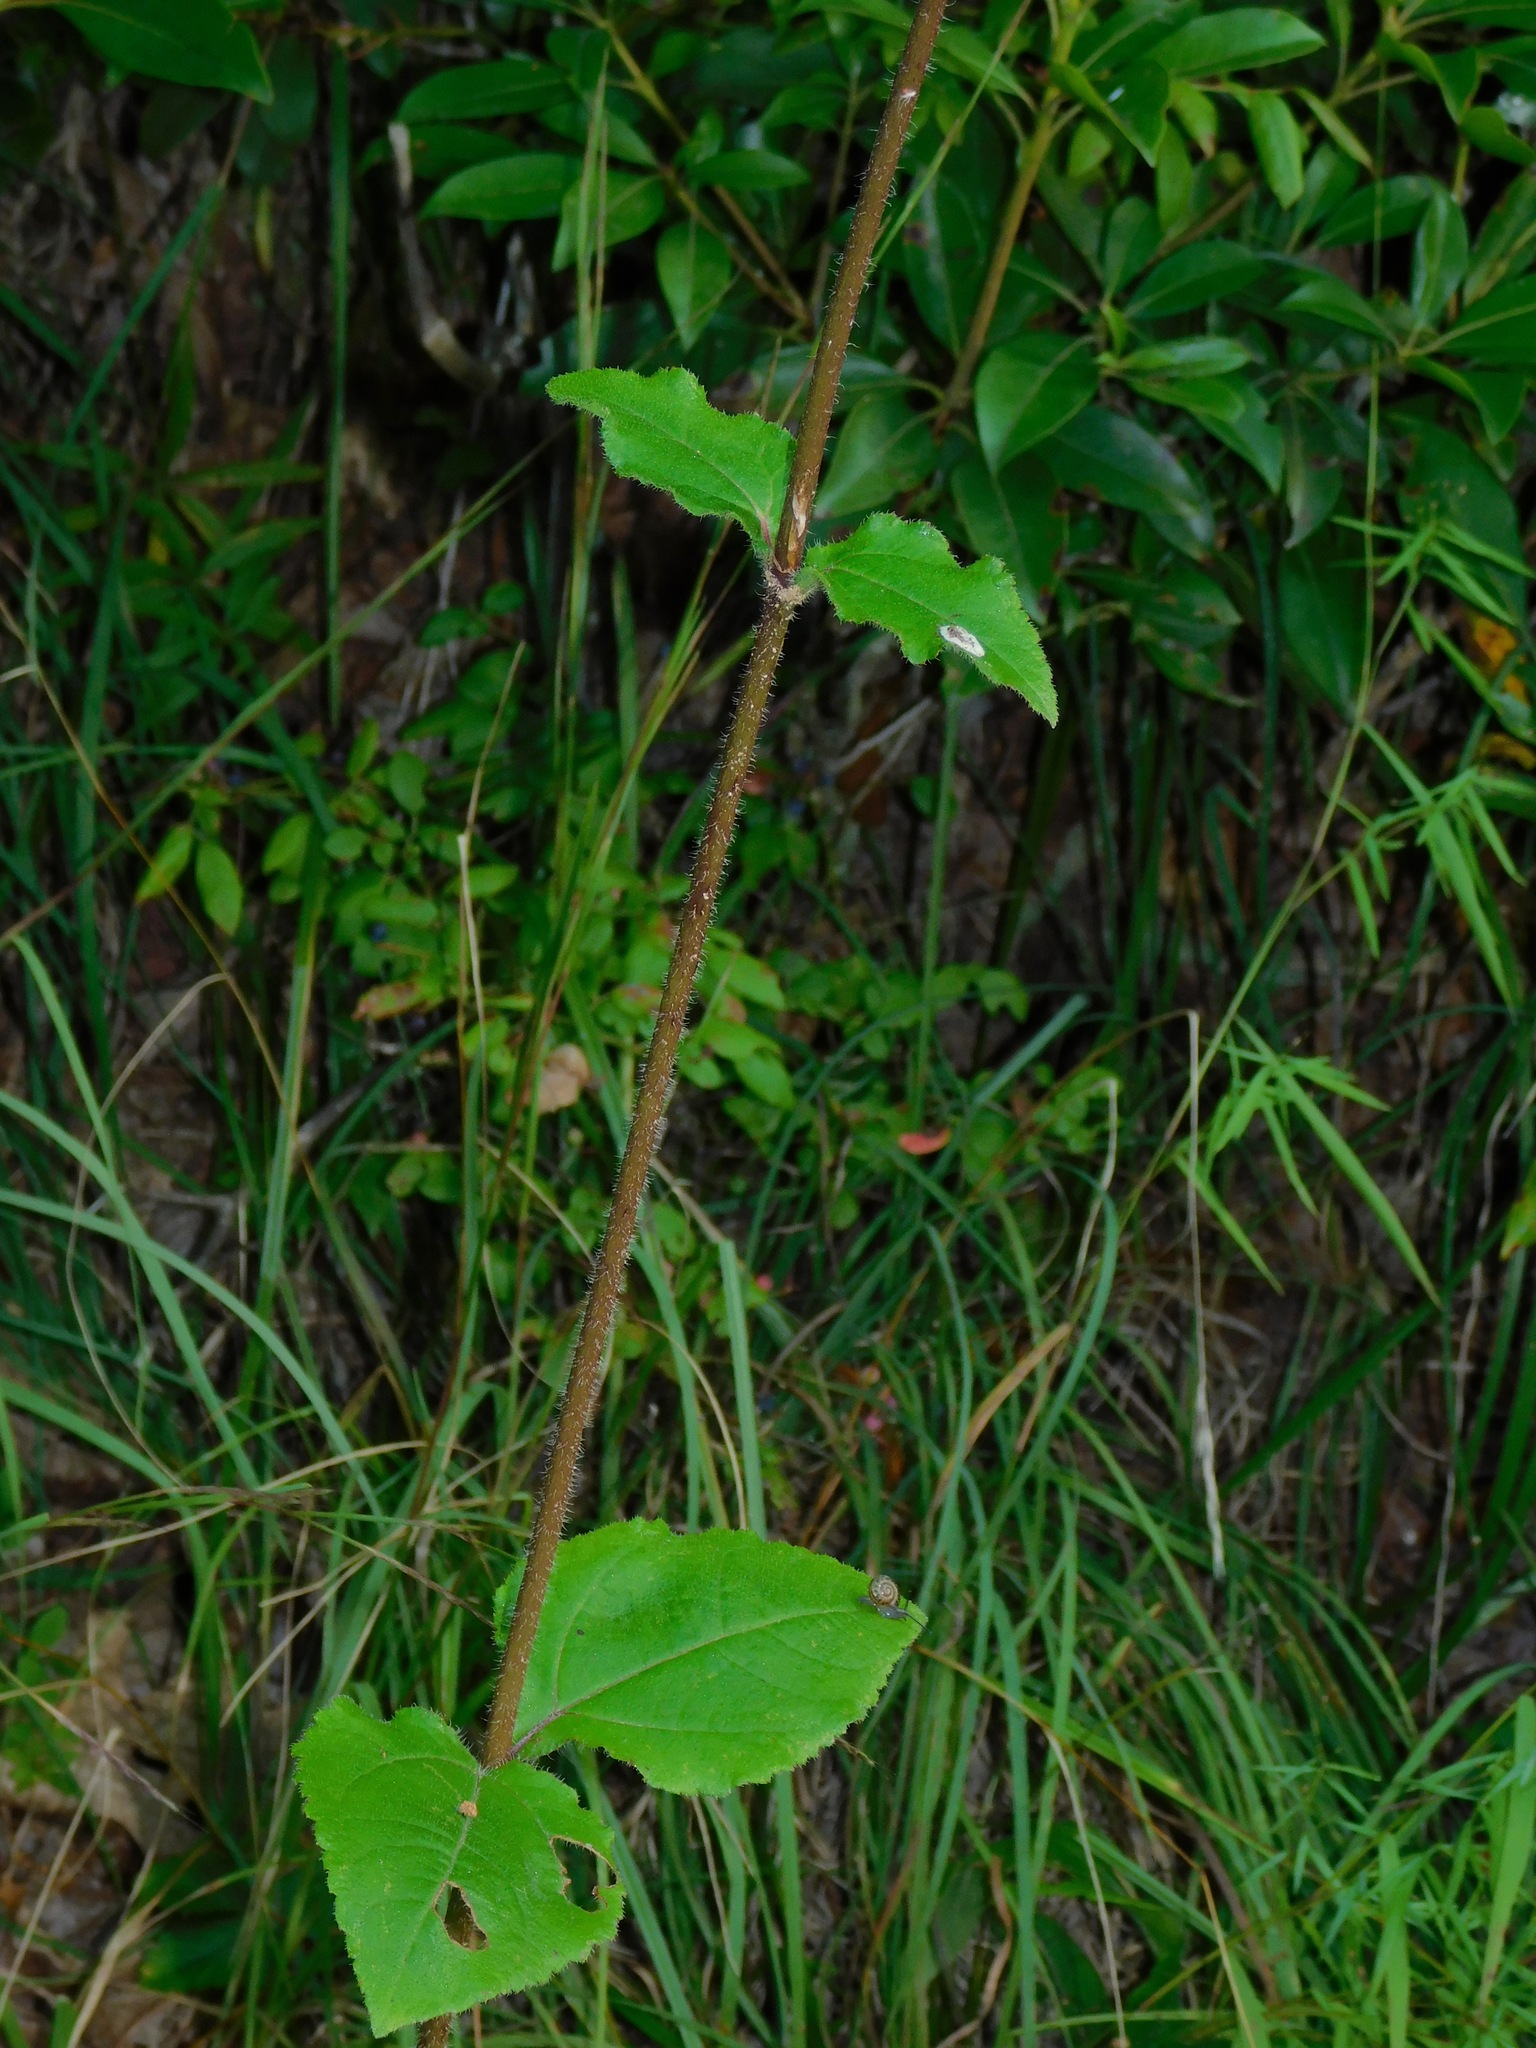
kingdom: Plantae
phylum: Tracheophyta
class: Magnoliopsida
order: Asterales
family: Asteraceae
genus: Helianthus
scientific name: Helianthus atrorubens
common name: Dark-eyed sunflower
